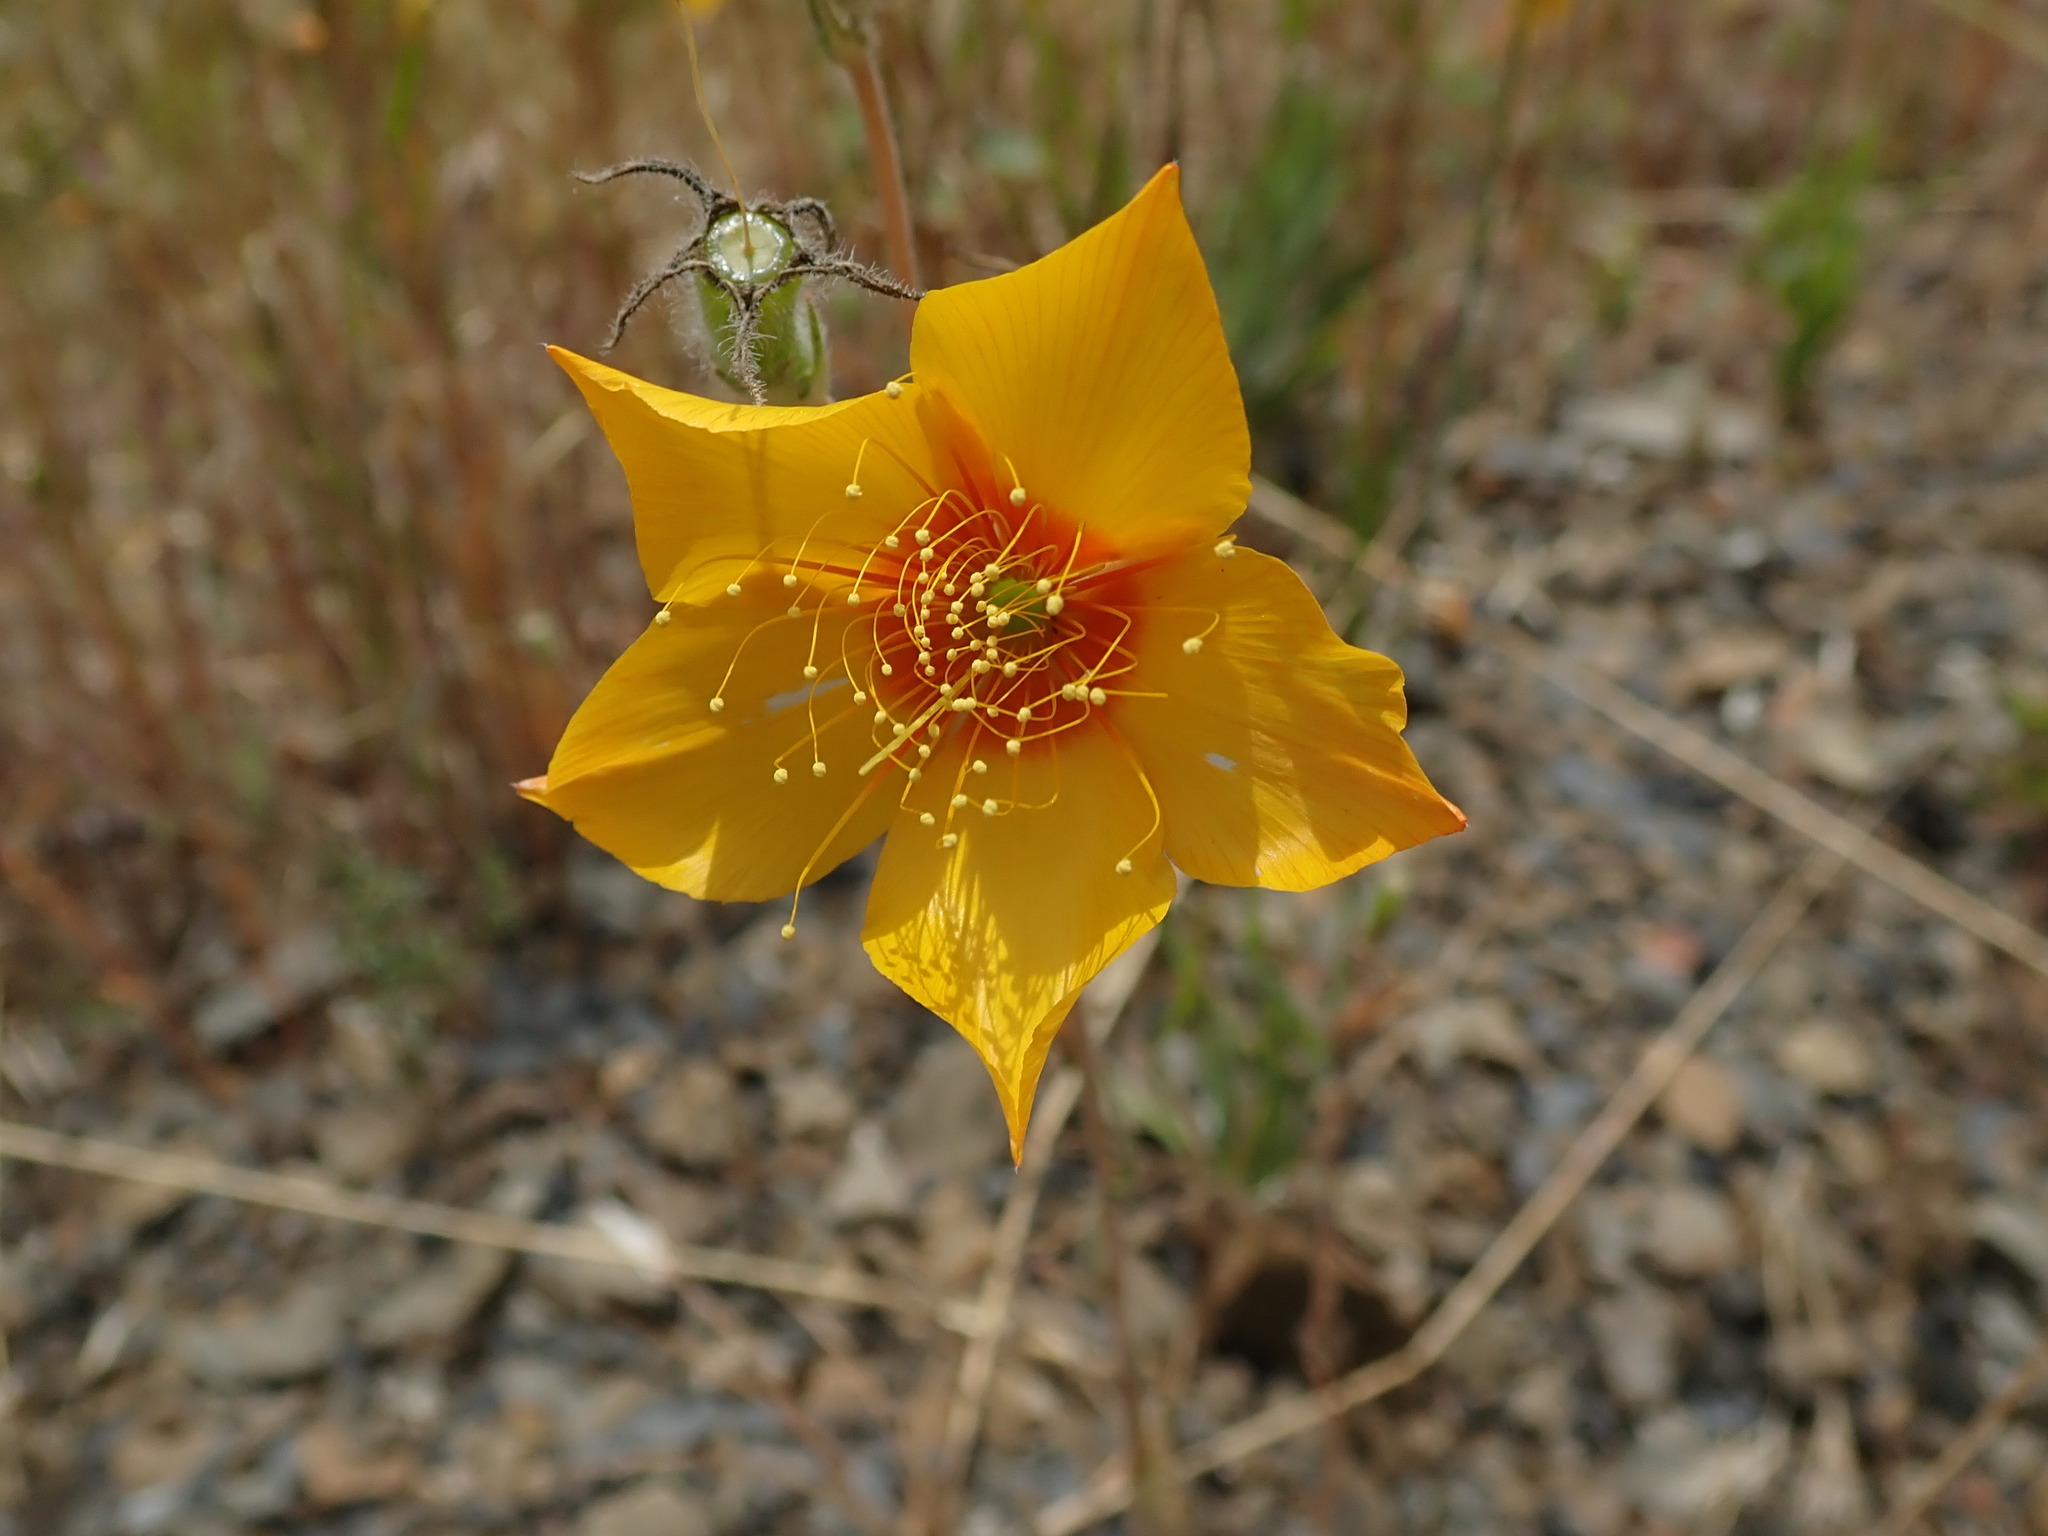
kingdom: Plantae
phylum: Tracheophyta
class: Magnoliopsida
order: Cornales
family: Loasaceae
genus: Mentzelia
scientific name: Mentzelia lindleyi
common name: Golden bartonia
